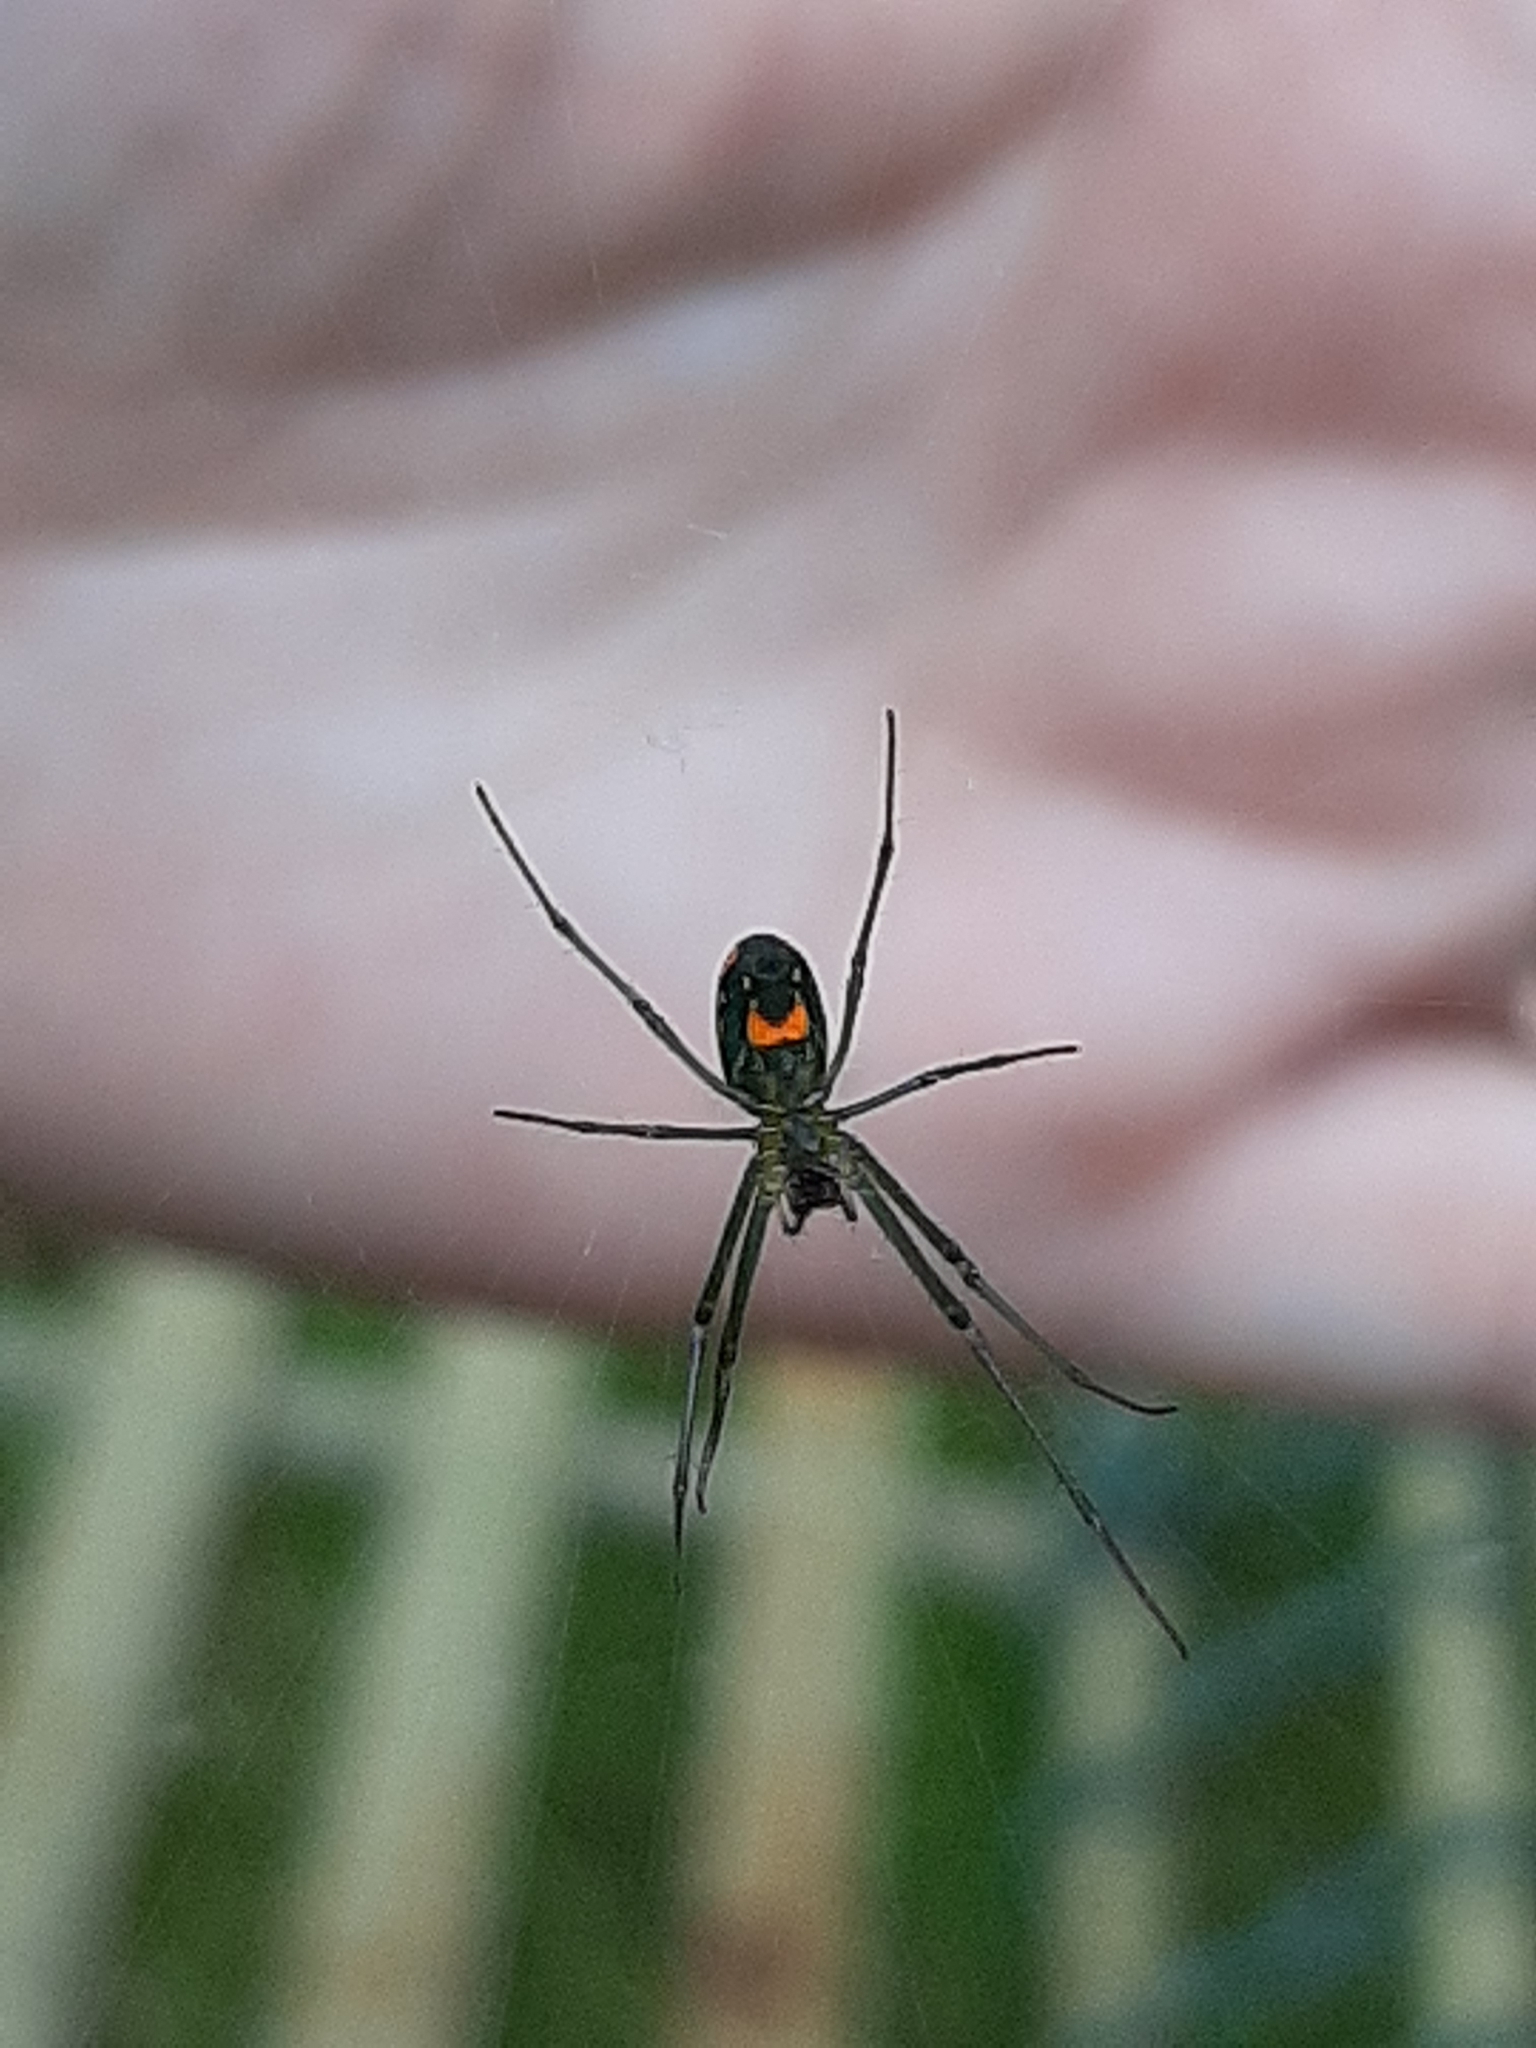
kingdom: Animalia
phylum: Arthropoda
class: Arachnida
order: Araneae
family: Tetragnathidae
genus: Leucauge
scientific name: Leucauge argyrobapta
